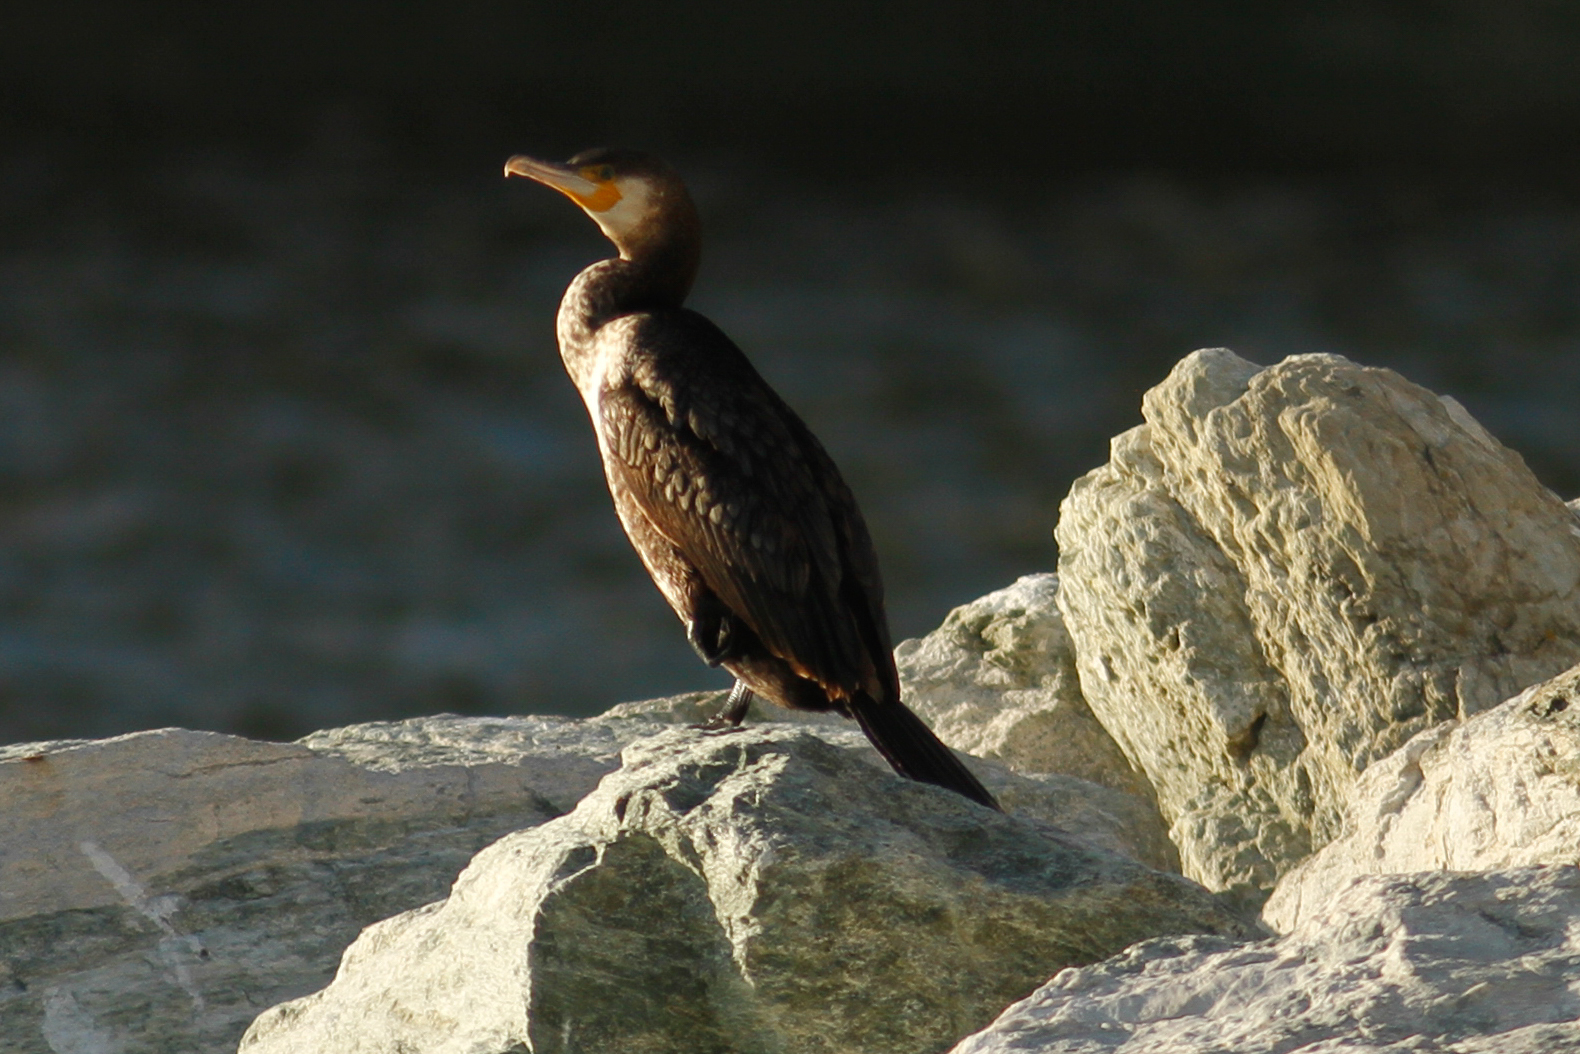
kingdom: Animalia
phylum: Chordata
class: Aves
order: Suliformes
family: Phalacrocoracidae
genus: Phalacrocorax
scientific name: Phalacrocorax carbo
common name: Great cormorant
